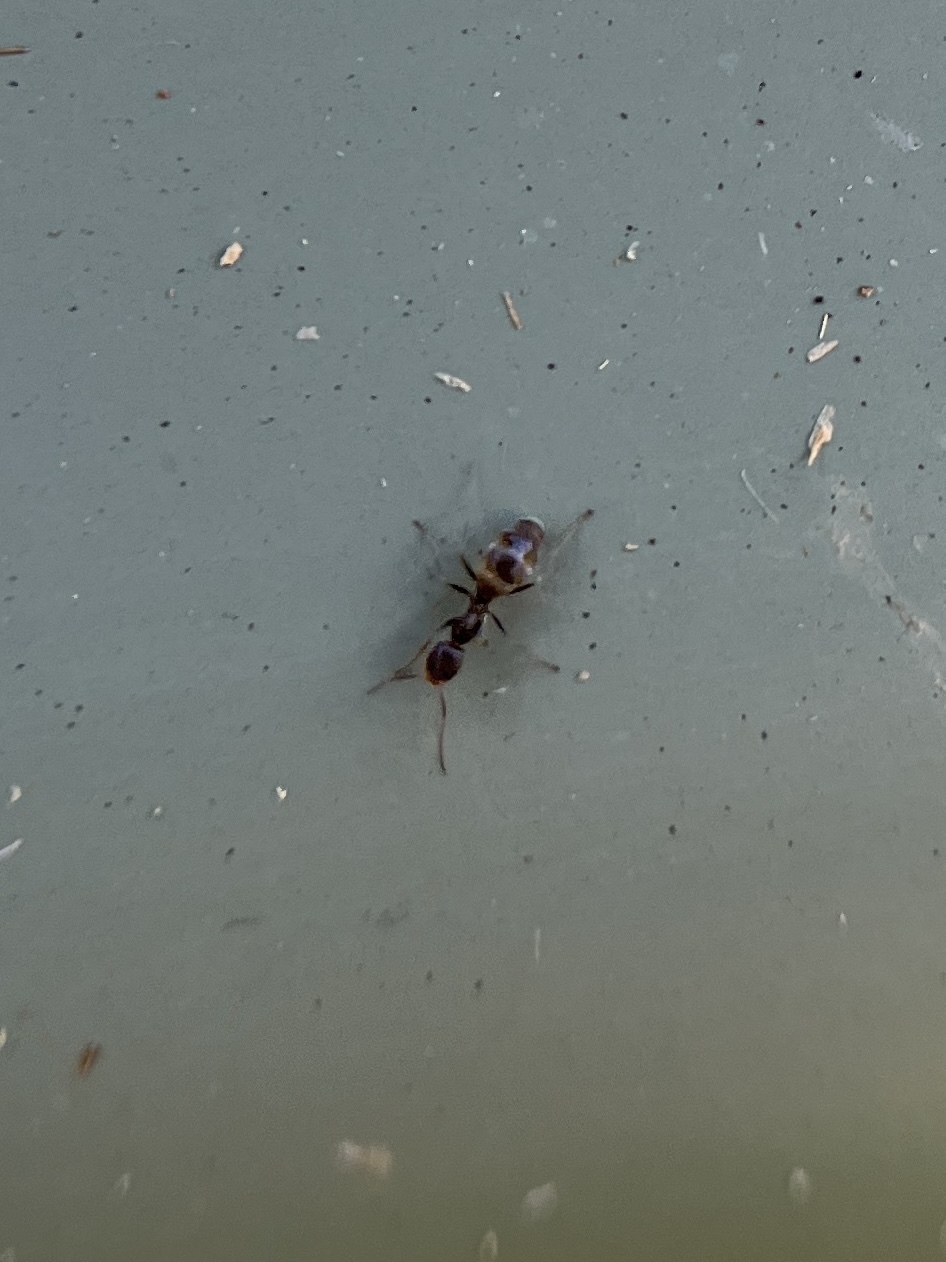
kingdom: Animalia
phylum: Arthropoda
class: Insecta
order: Hymenoptera
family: Formicidae
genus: Forelius
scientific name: Forelius pruinosus
